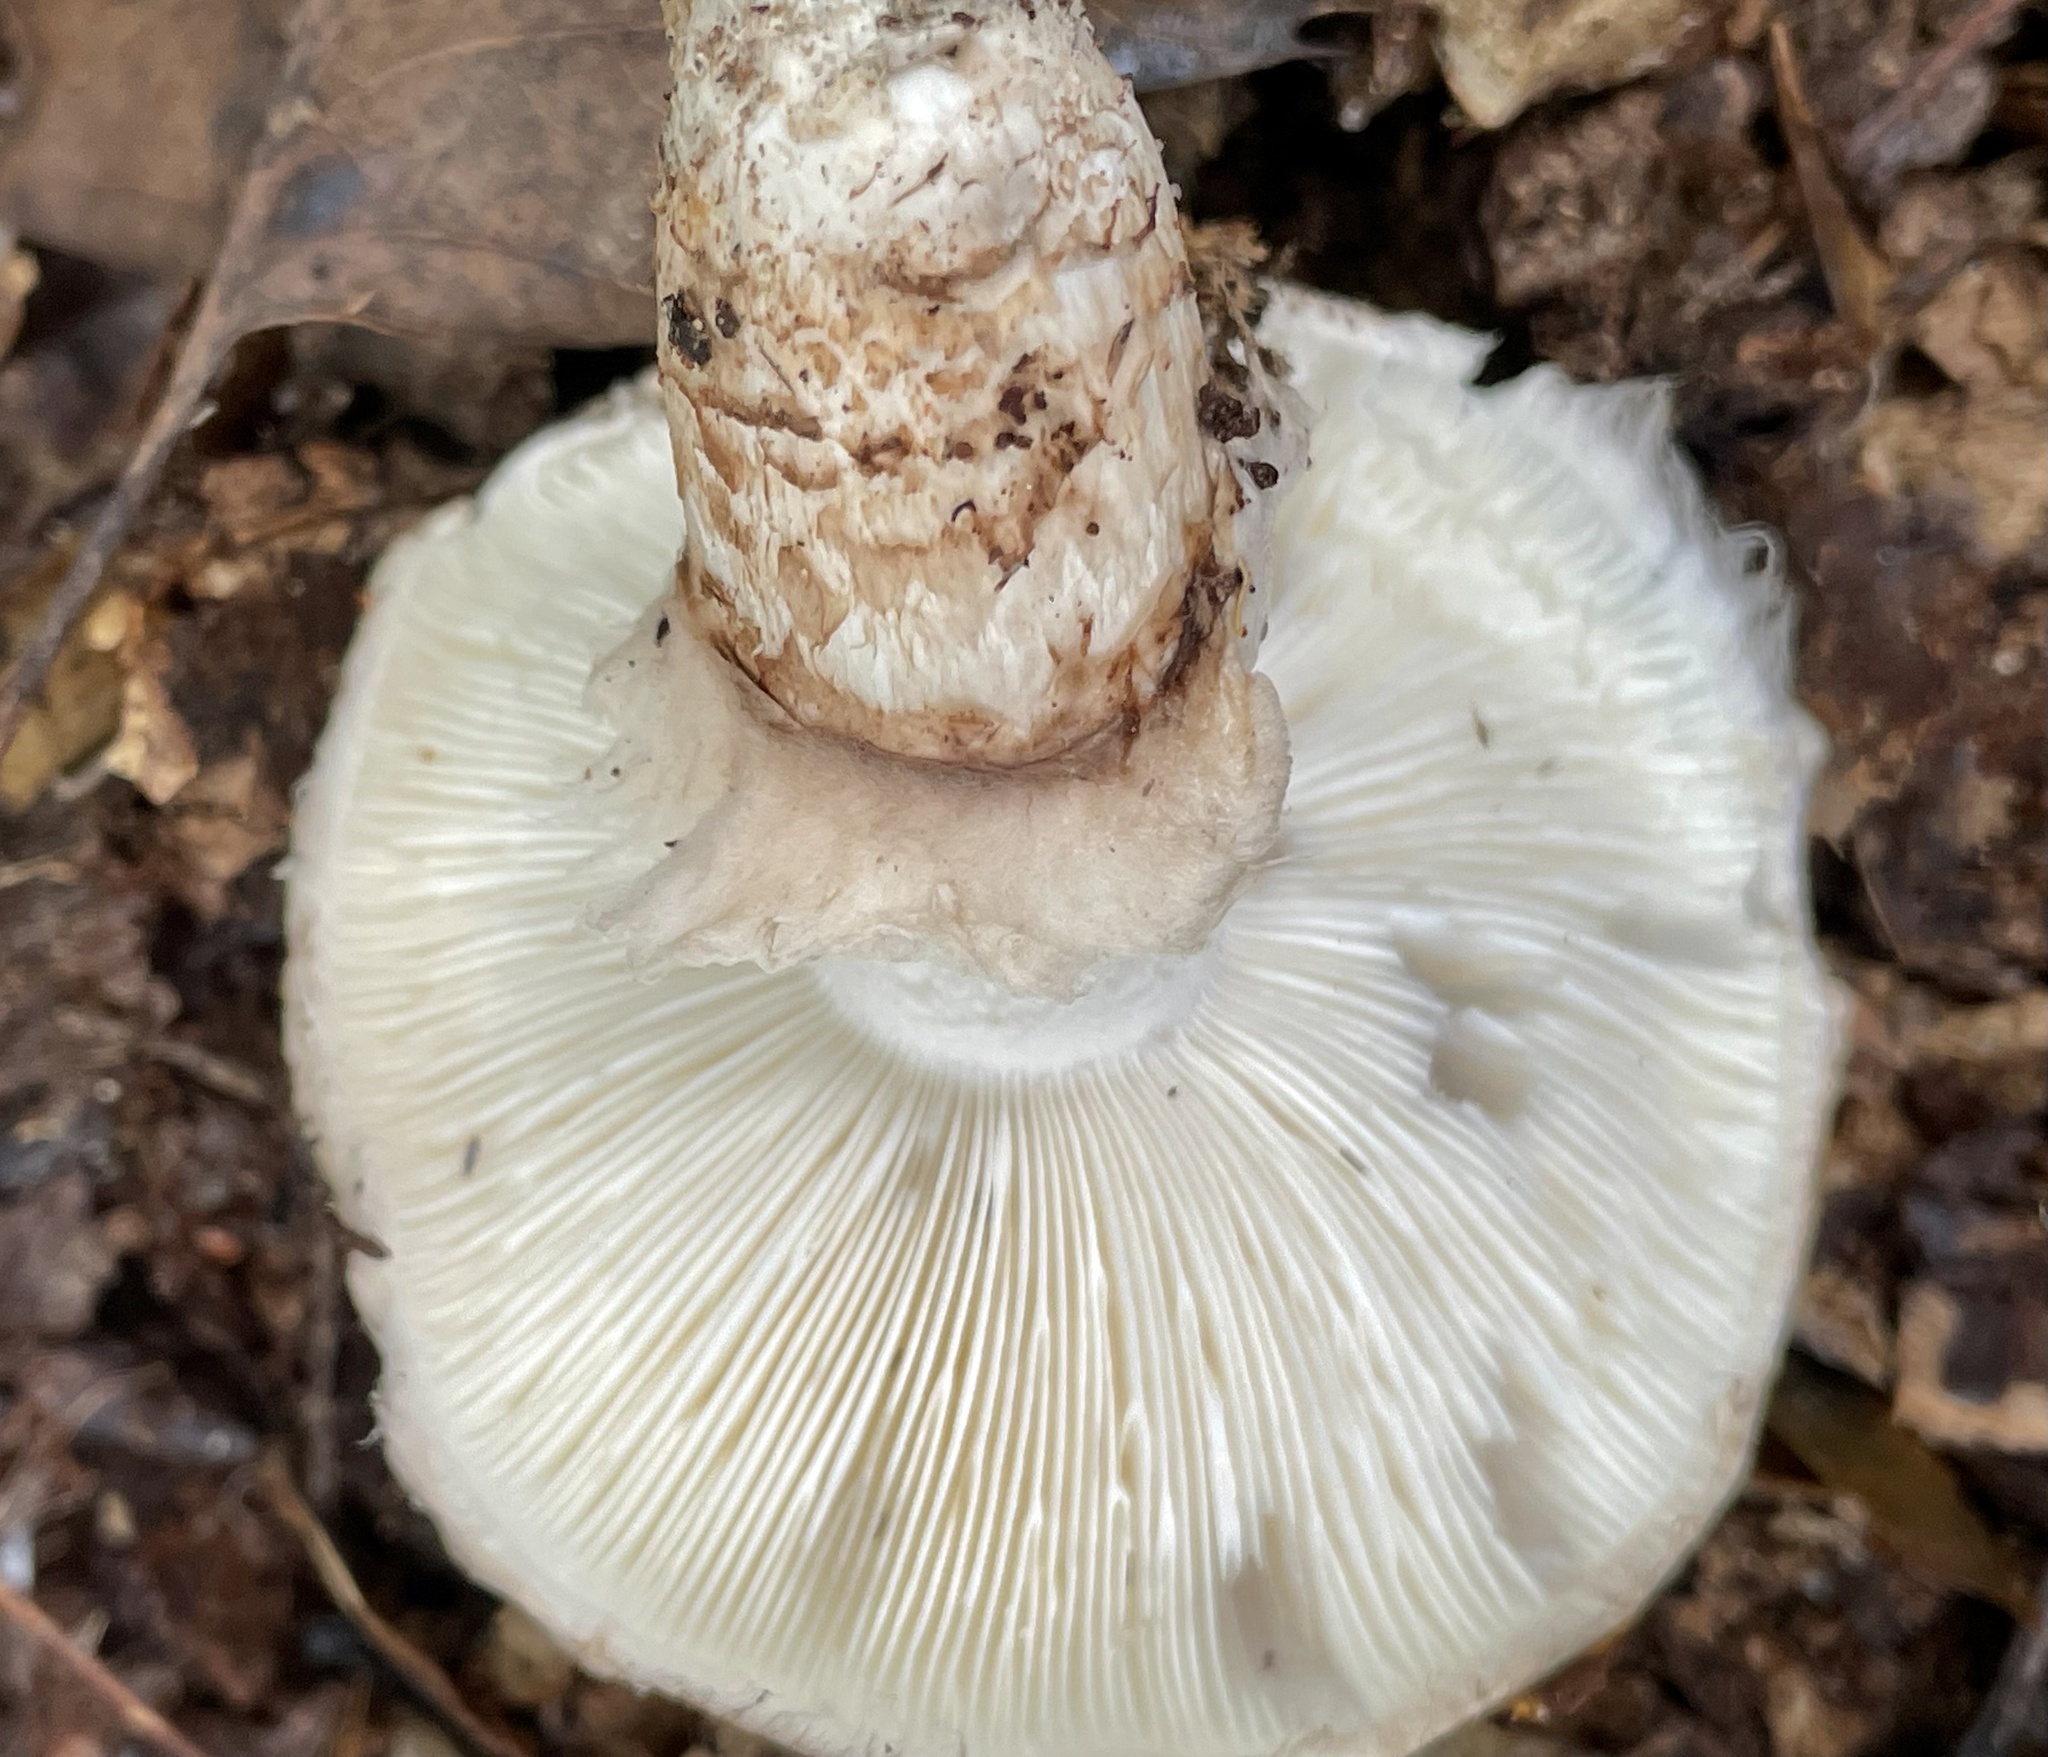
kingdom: Fungi
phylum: Basidiomycota
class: Agaricomycetes
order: Agaricales
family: Tricholomataceae
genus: Tricholoma
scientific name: Tricholoma caligatum
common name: True booted knight
